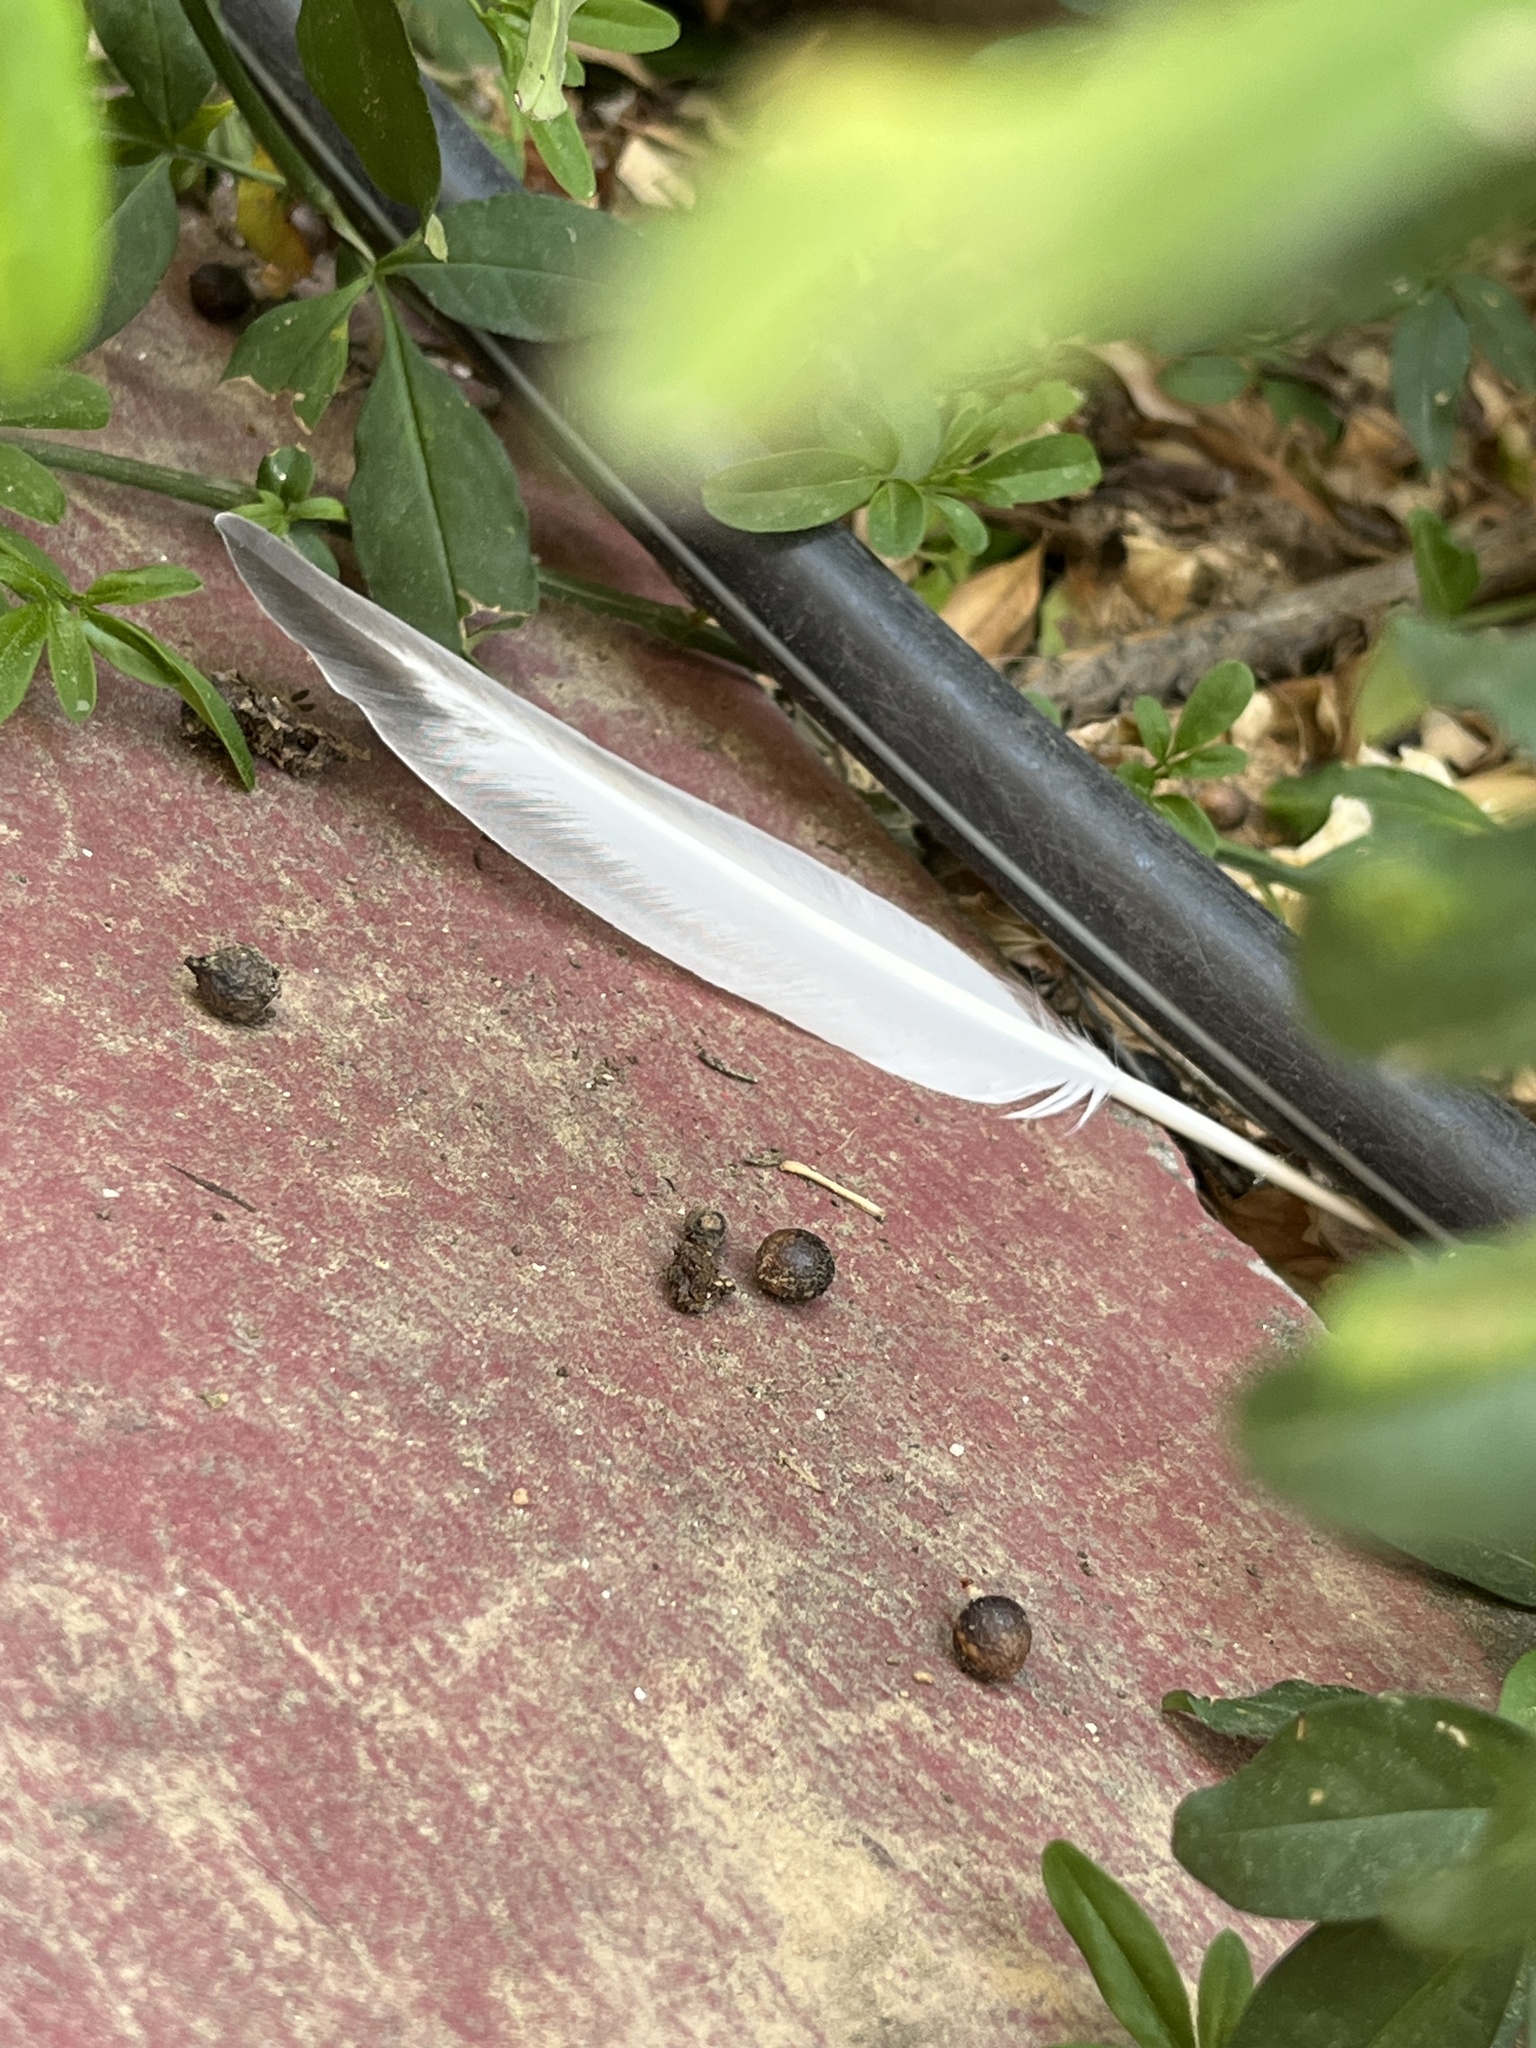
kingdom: Animalia
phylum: Chordata
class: Aves
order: Columbiformes
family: Columbidae
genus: Columba
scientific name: Columba livia
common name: Rock pigeon
